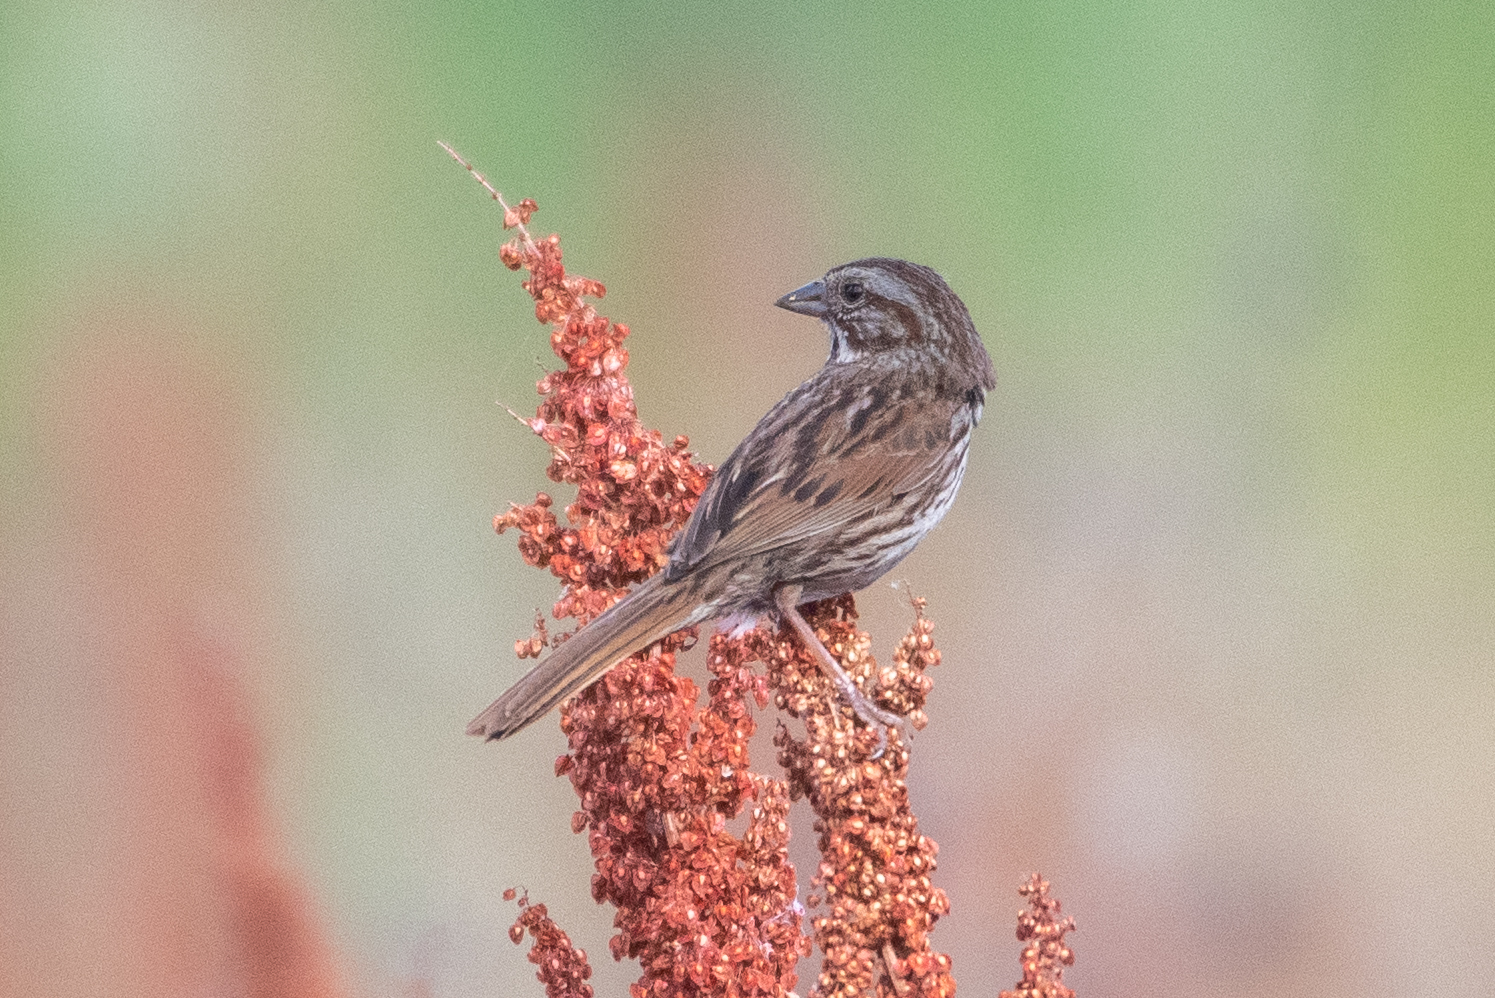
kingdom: Animalia
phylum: Chordata
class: Aves
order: Passeriformes
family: Passerellidae
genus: Melospiza
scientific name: Melospiza melodia
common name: Song sparrow
